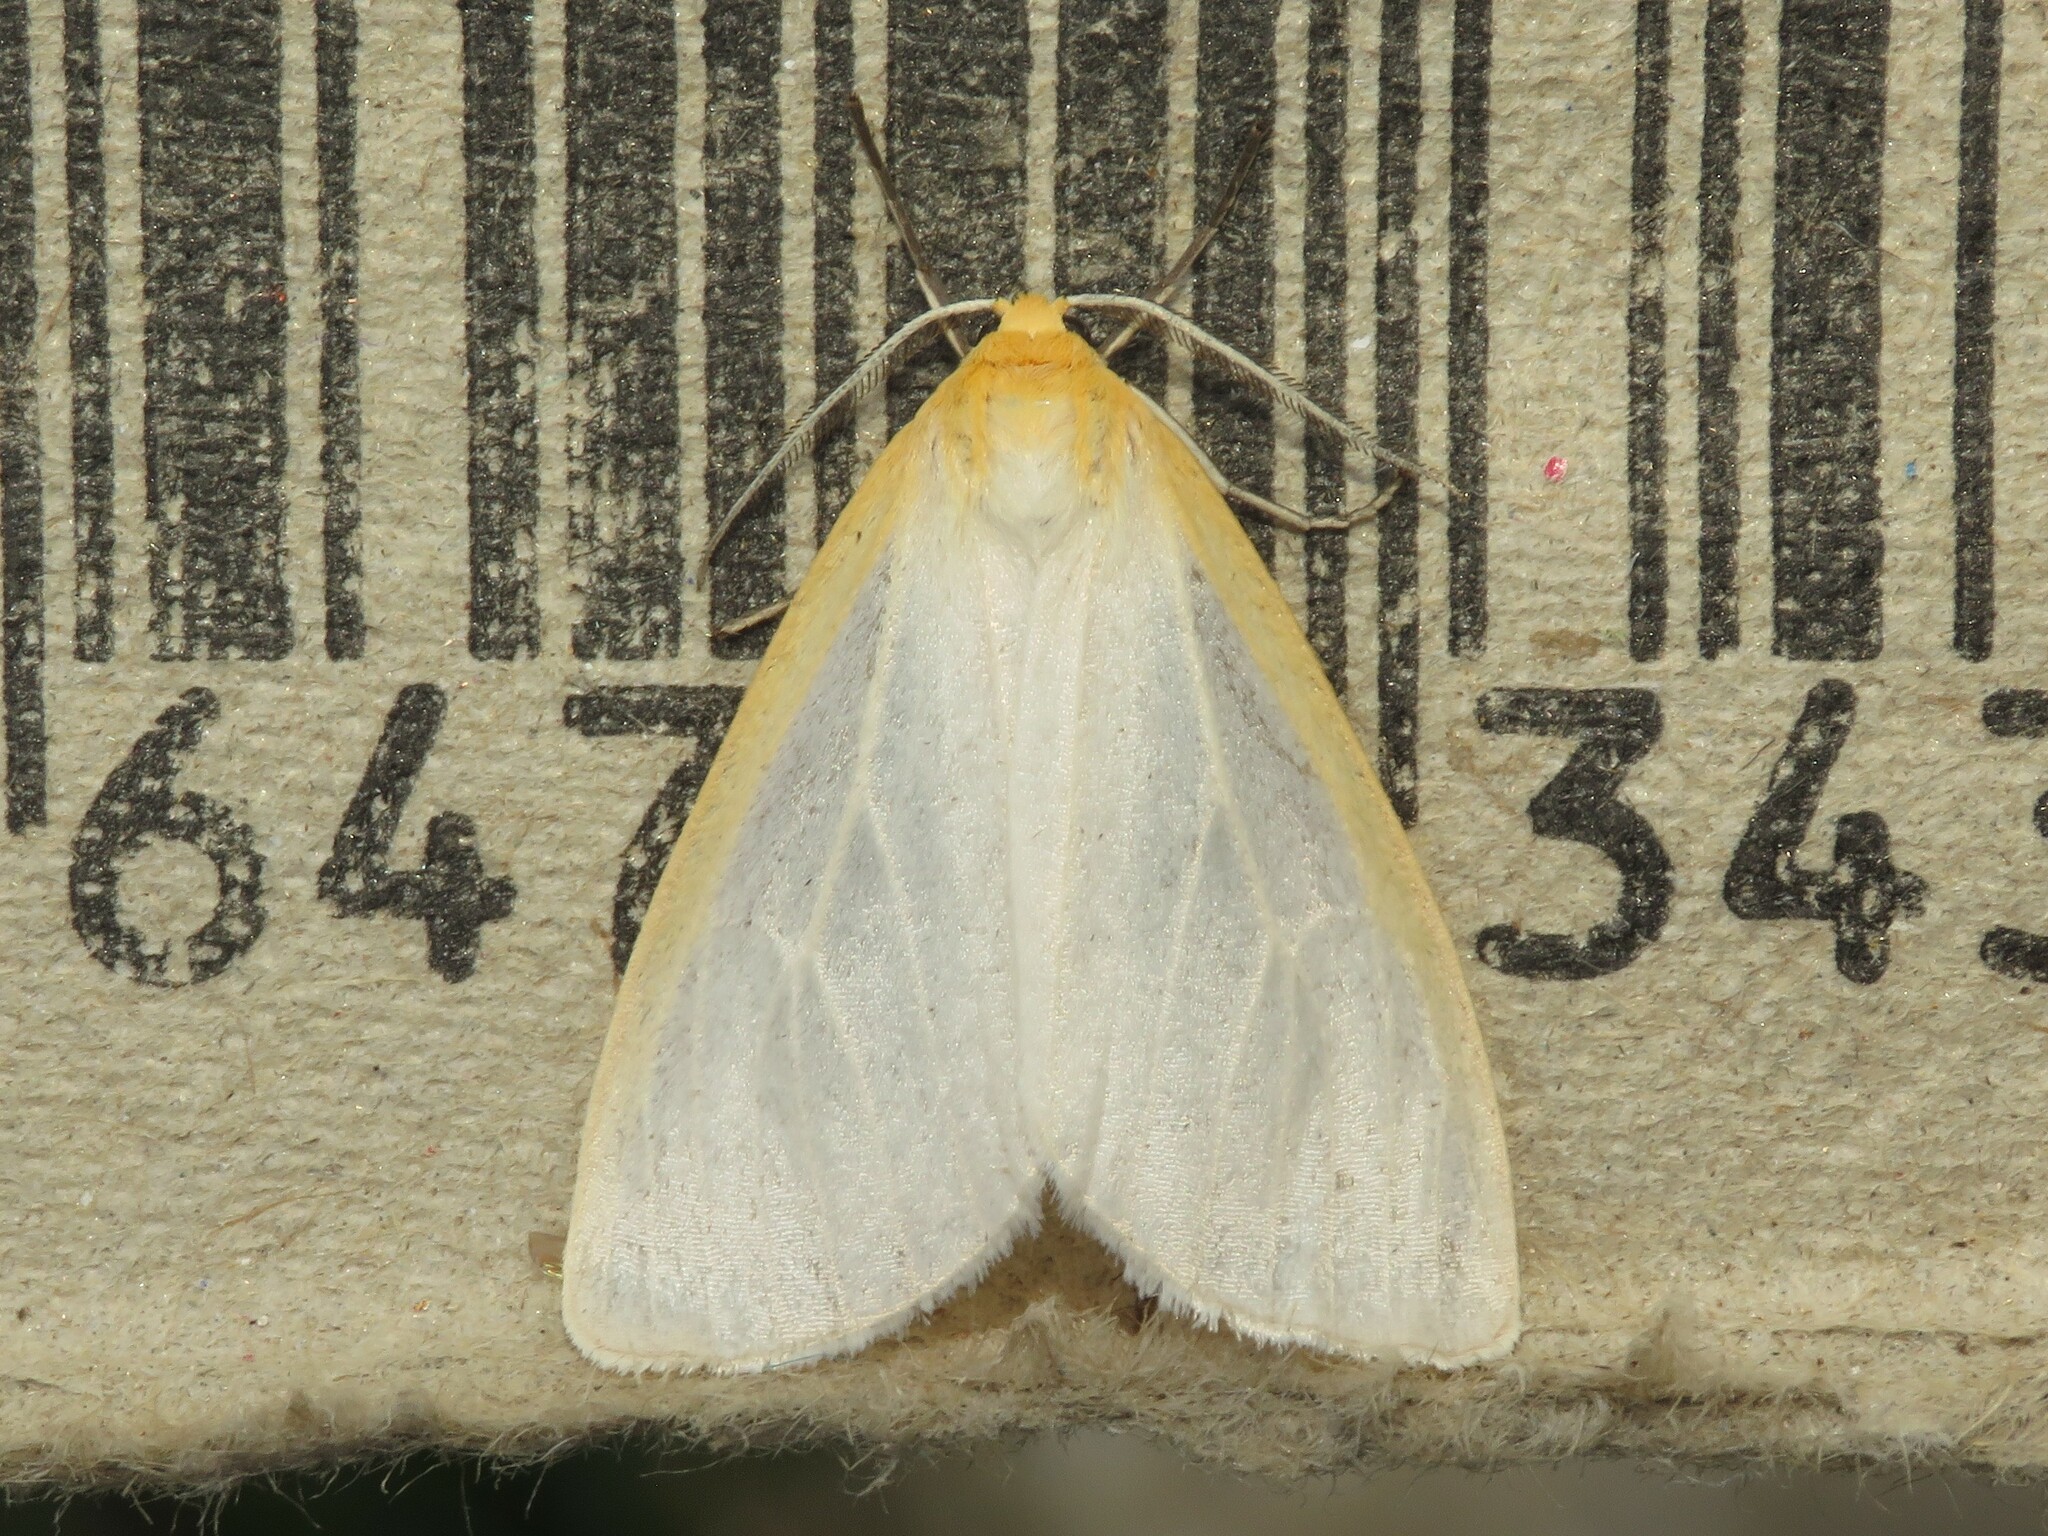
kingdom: Animalia
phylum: Arthropoda
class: Insecta
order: Lepidoptera
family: Erebidae
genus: Cycnia
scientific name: Cycnia tenera
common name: Delicate cycnia moth
